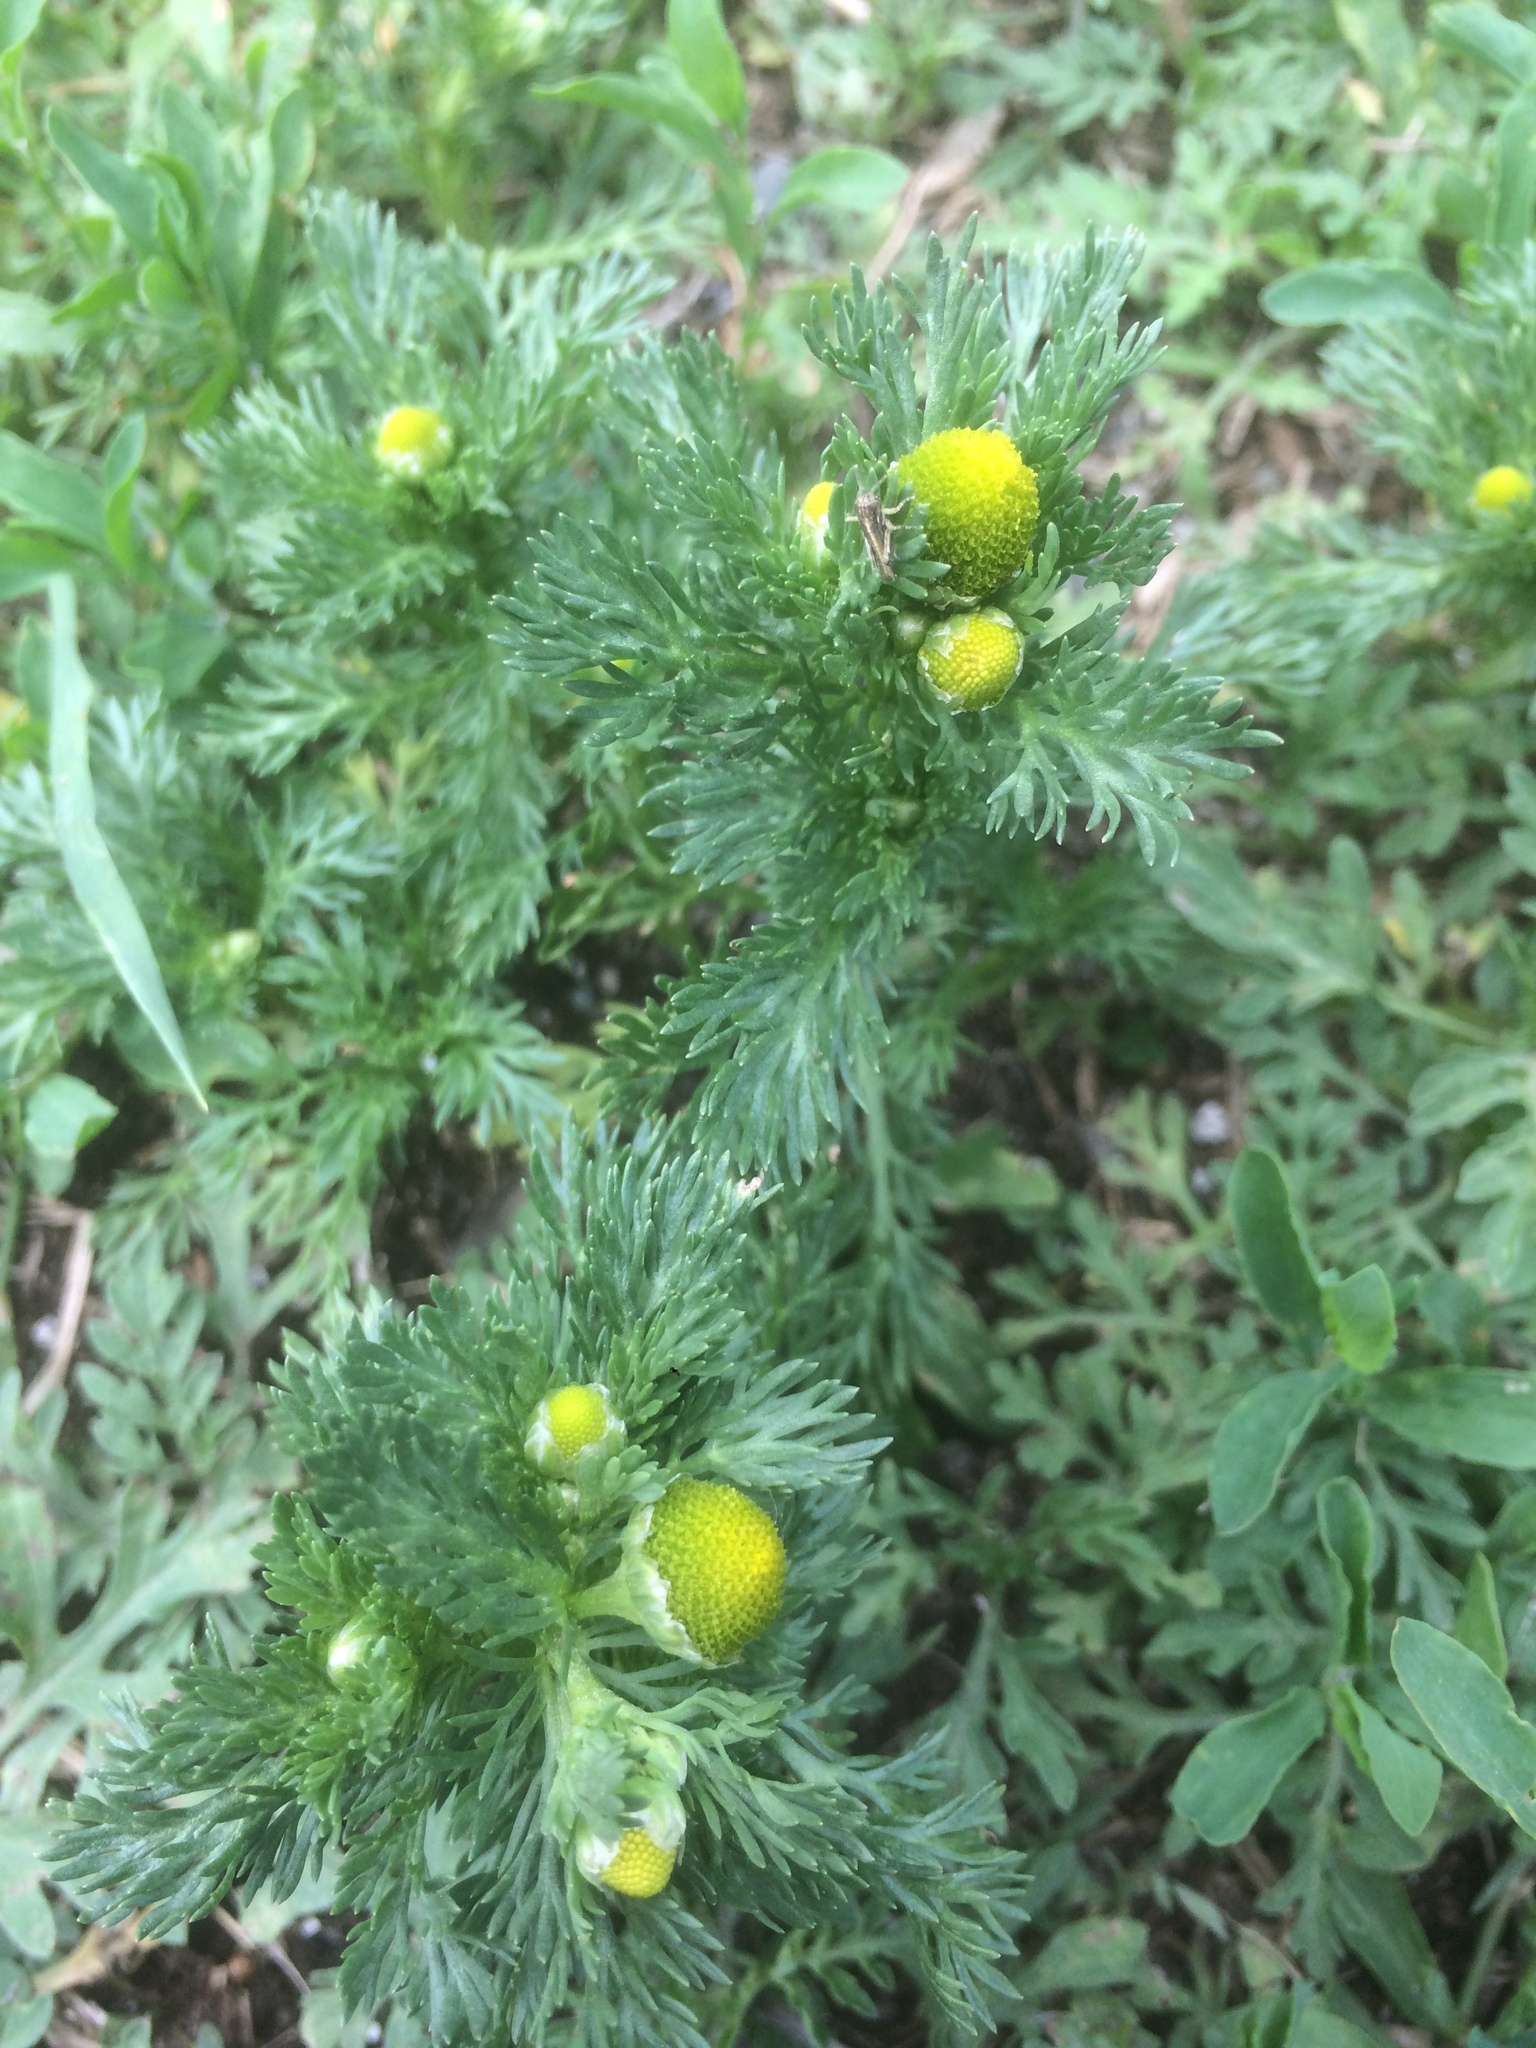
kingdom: Plantae
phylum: Tracheophyta
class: Magnoliopsida
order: Asterales
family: Asteraceae
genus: Matricaria
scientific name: Matricaria discoidea
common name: Disc mayweed
